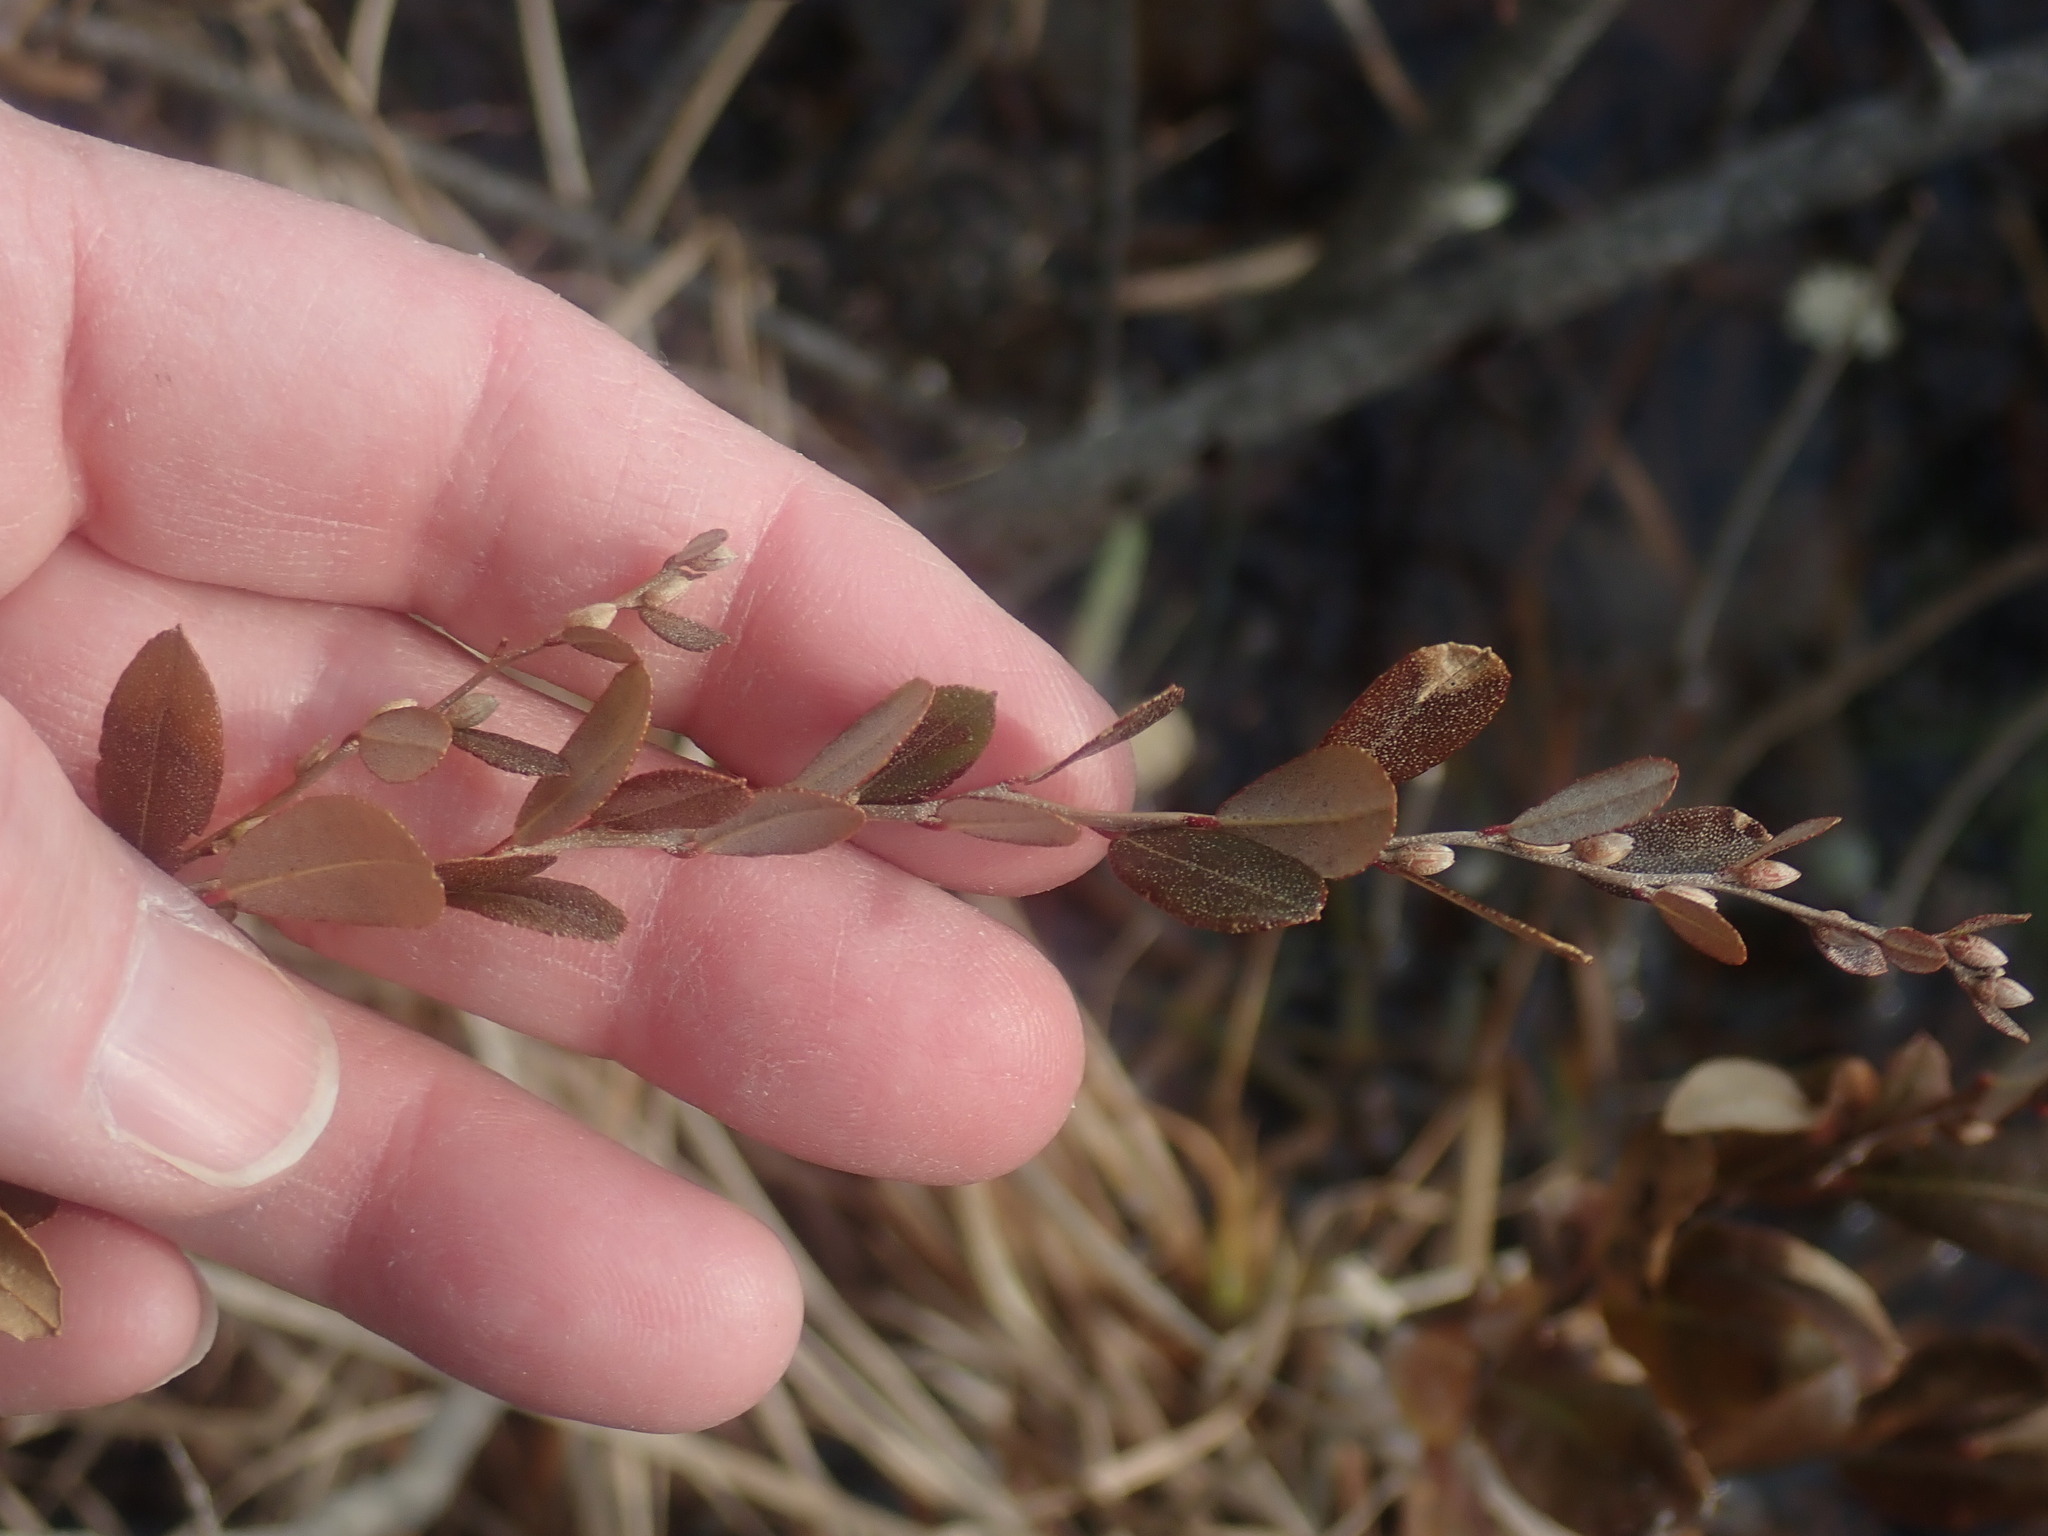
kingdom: Plantae
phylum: Tracheophyta
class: Magnoliopsida
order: Ericales
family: Ericaceae
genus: Chamaedaphne
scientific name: Chamaedaphne calyculata
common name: Leatherleaf
